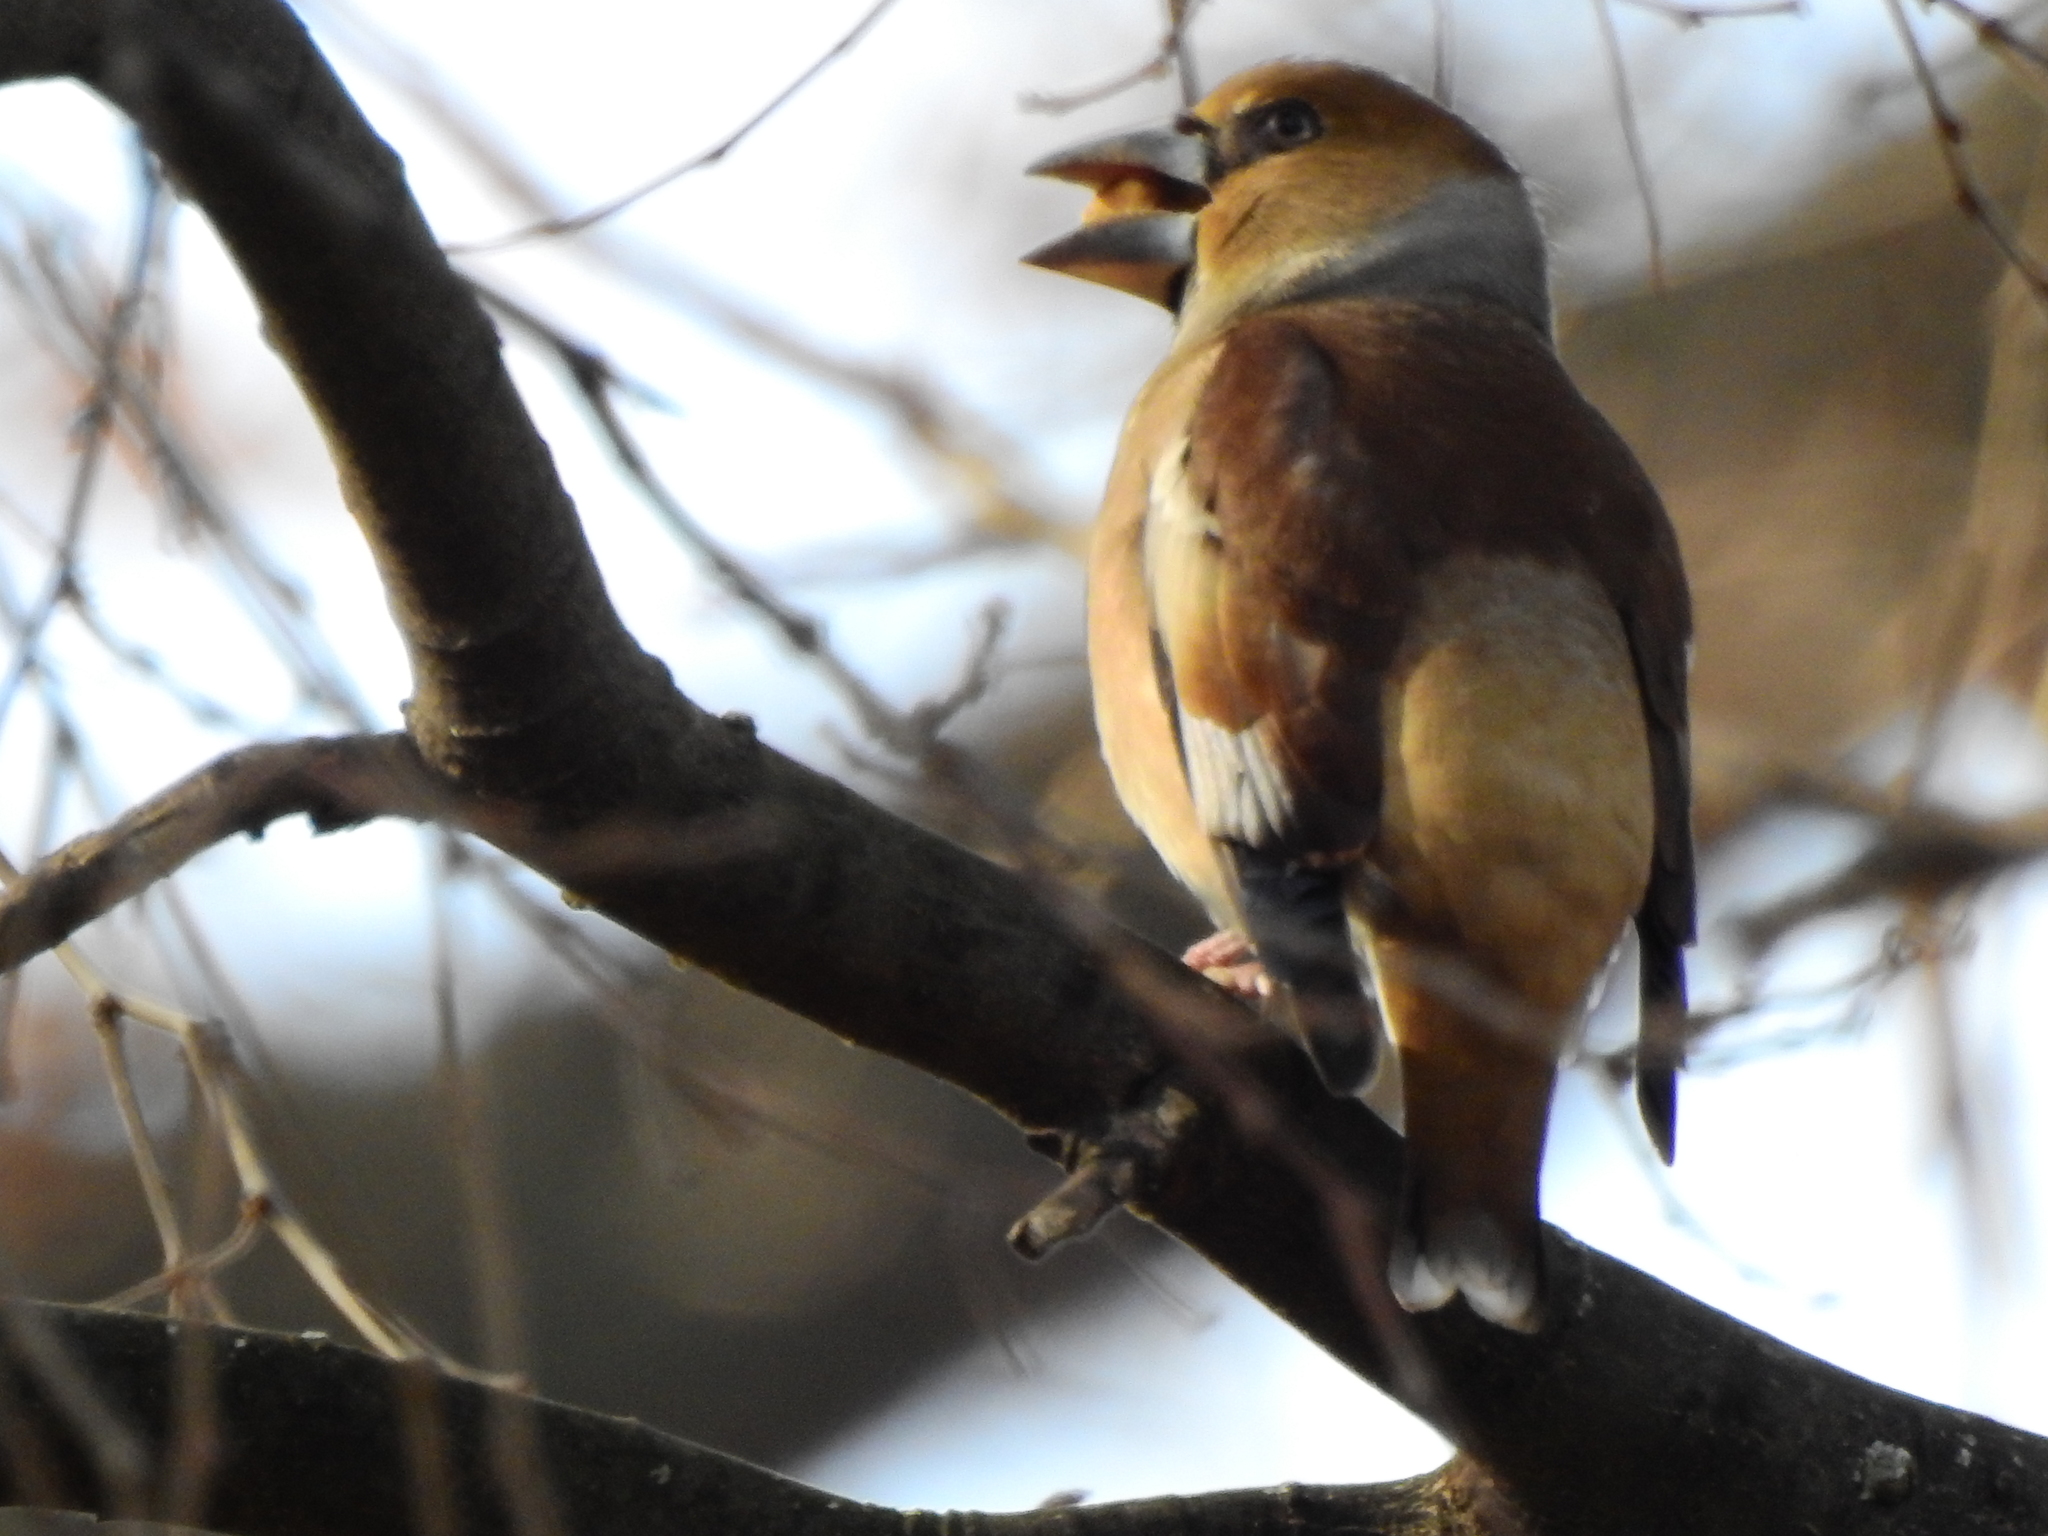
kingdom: Animalia
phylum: Chordata
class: Aves
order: Passeriformes
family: Fringillidae
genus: Coccothraustes
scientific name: Coccothraustes coccothraustes
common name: Hawfinch
